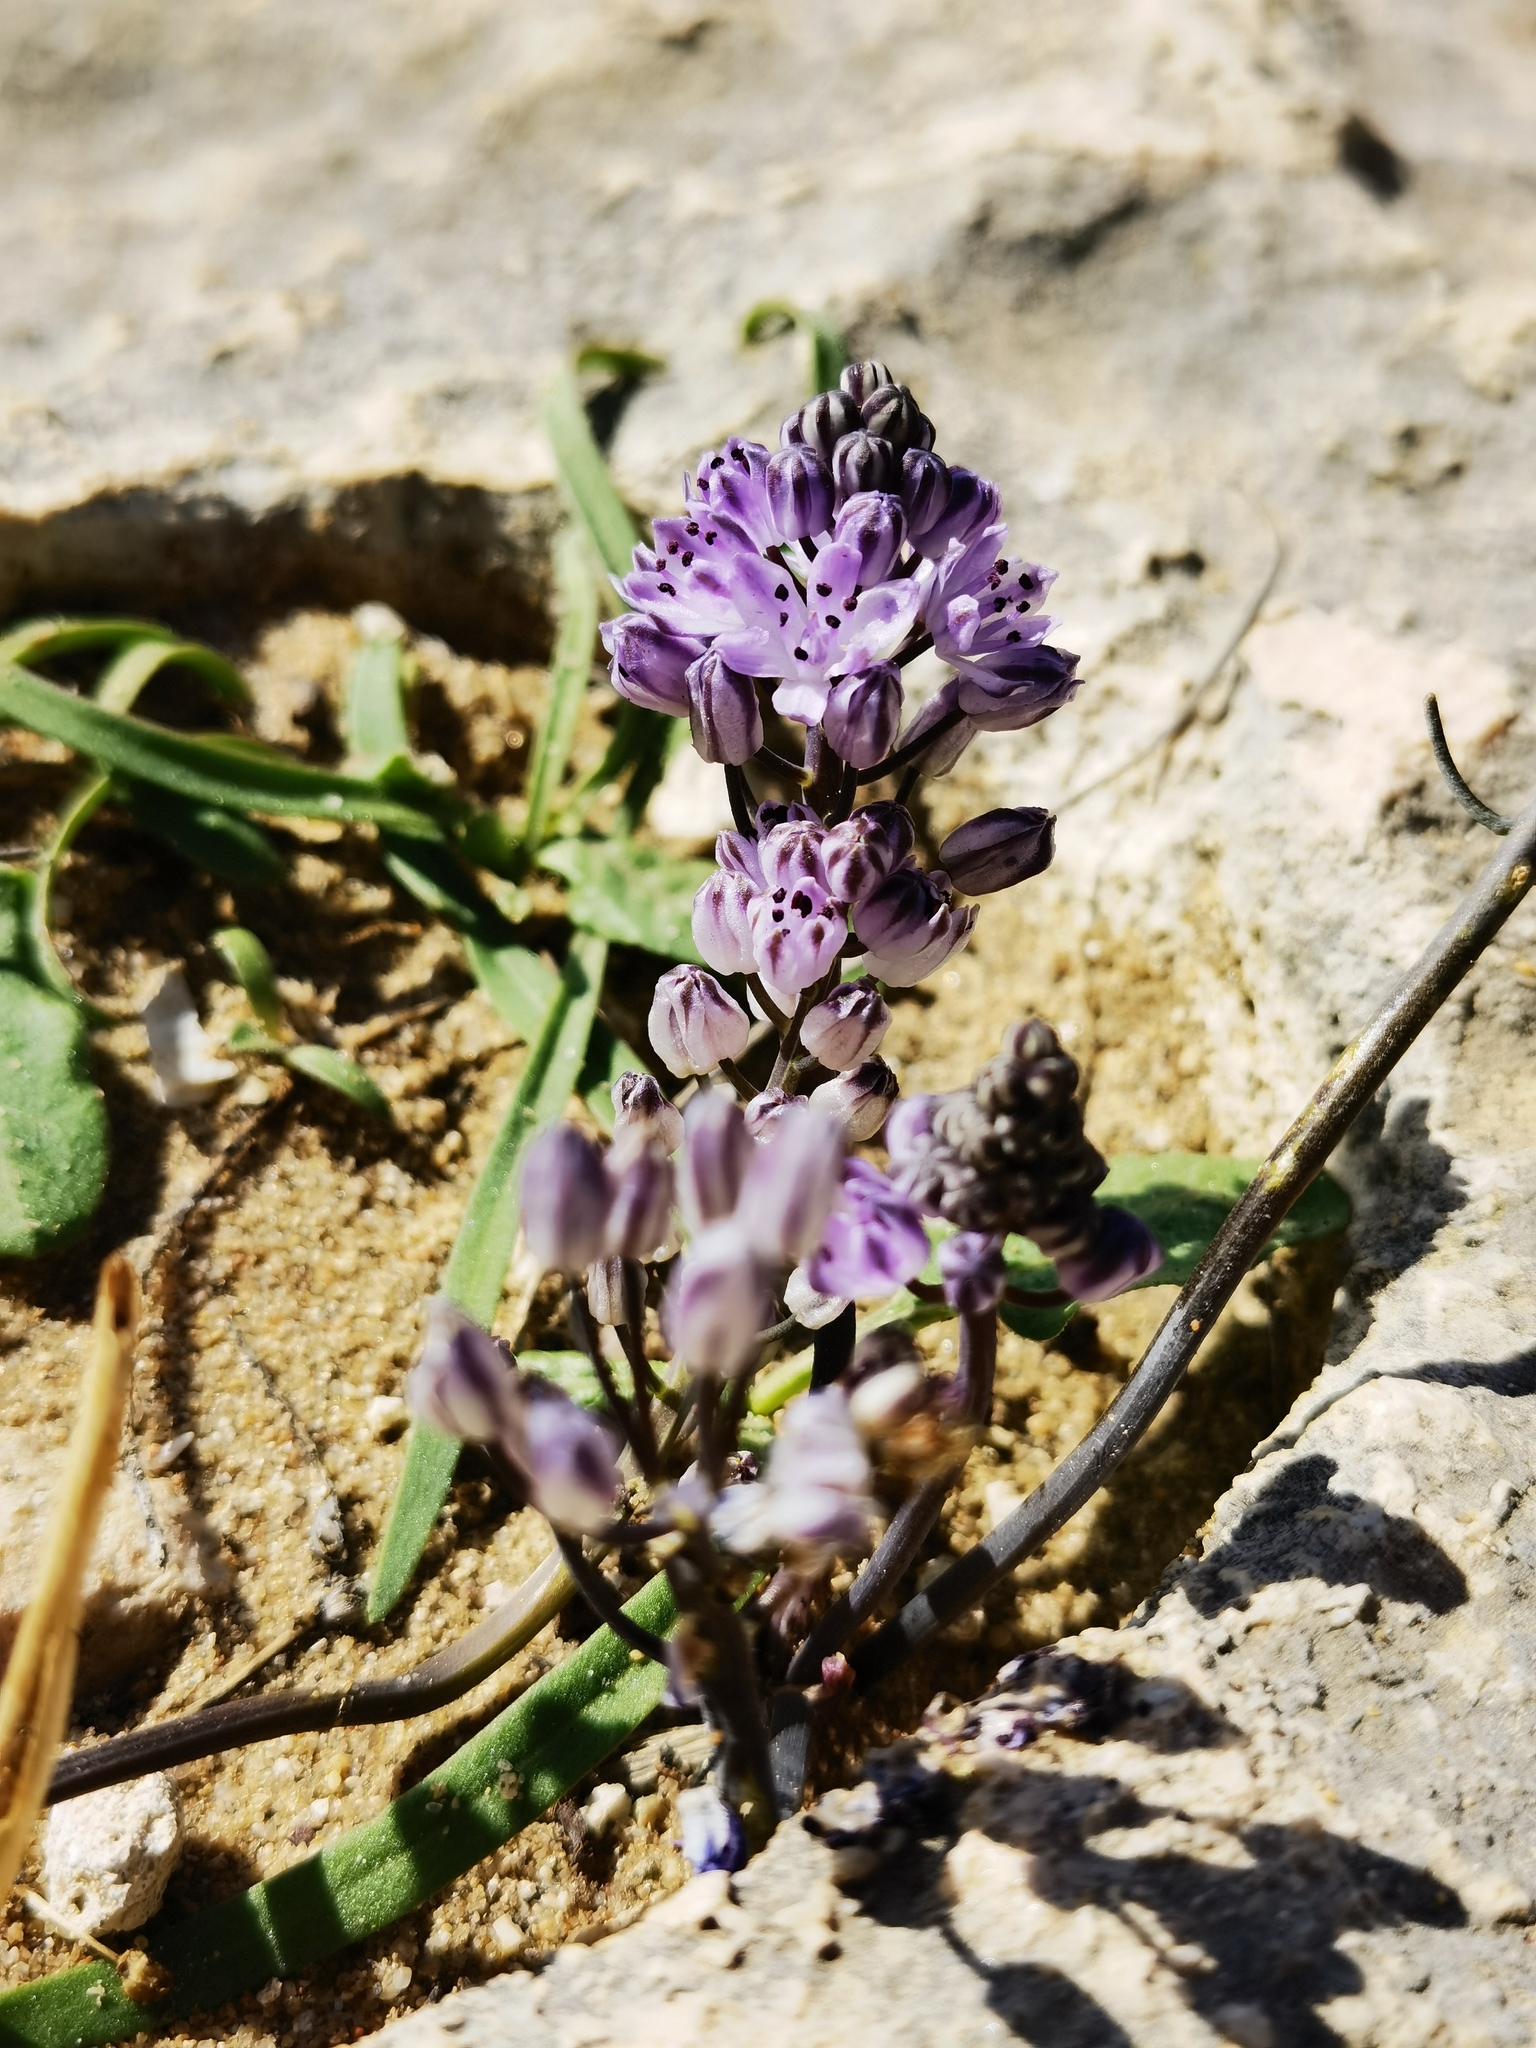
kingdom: Plantae
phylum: Tracheophyta
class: Liliopsida
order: Asparagales
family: Asparagaceae
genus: Prospero
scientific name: Prospero autumnale
